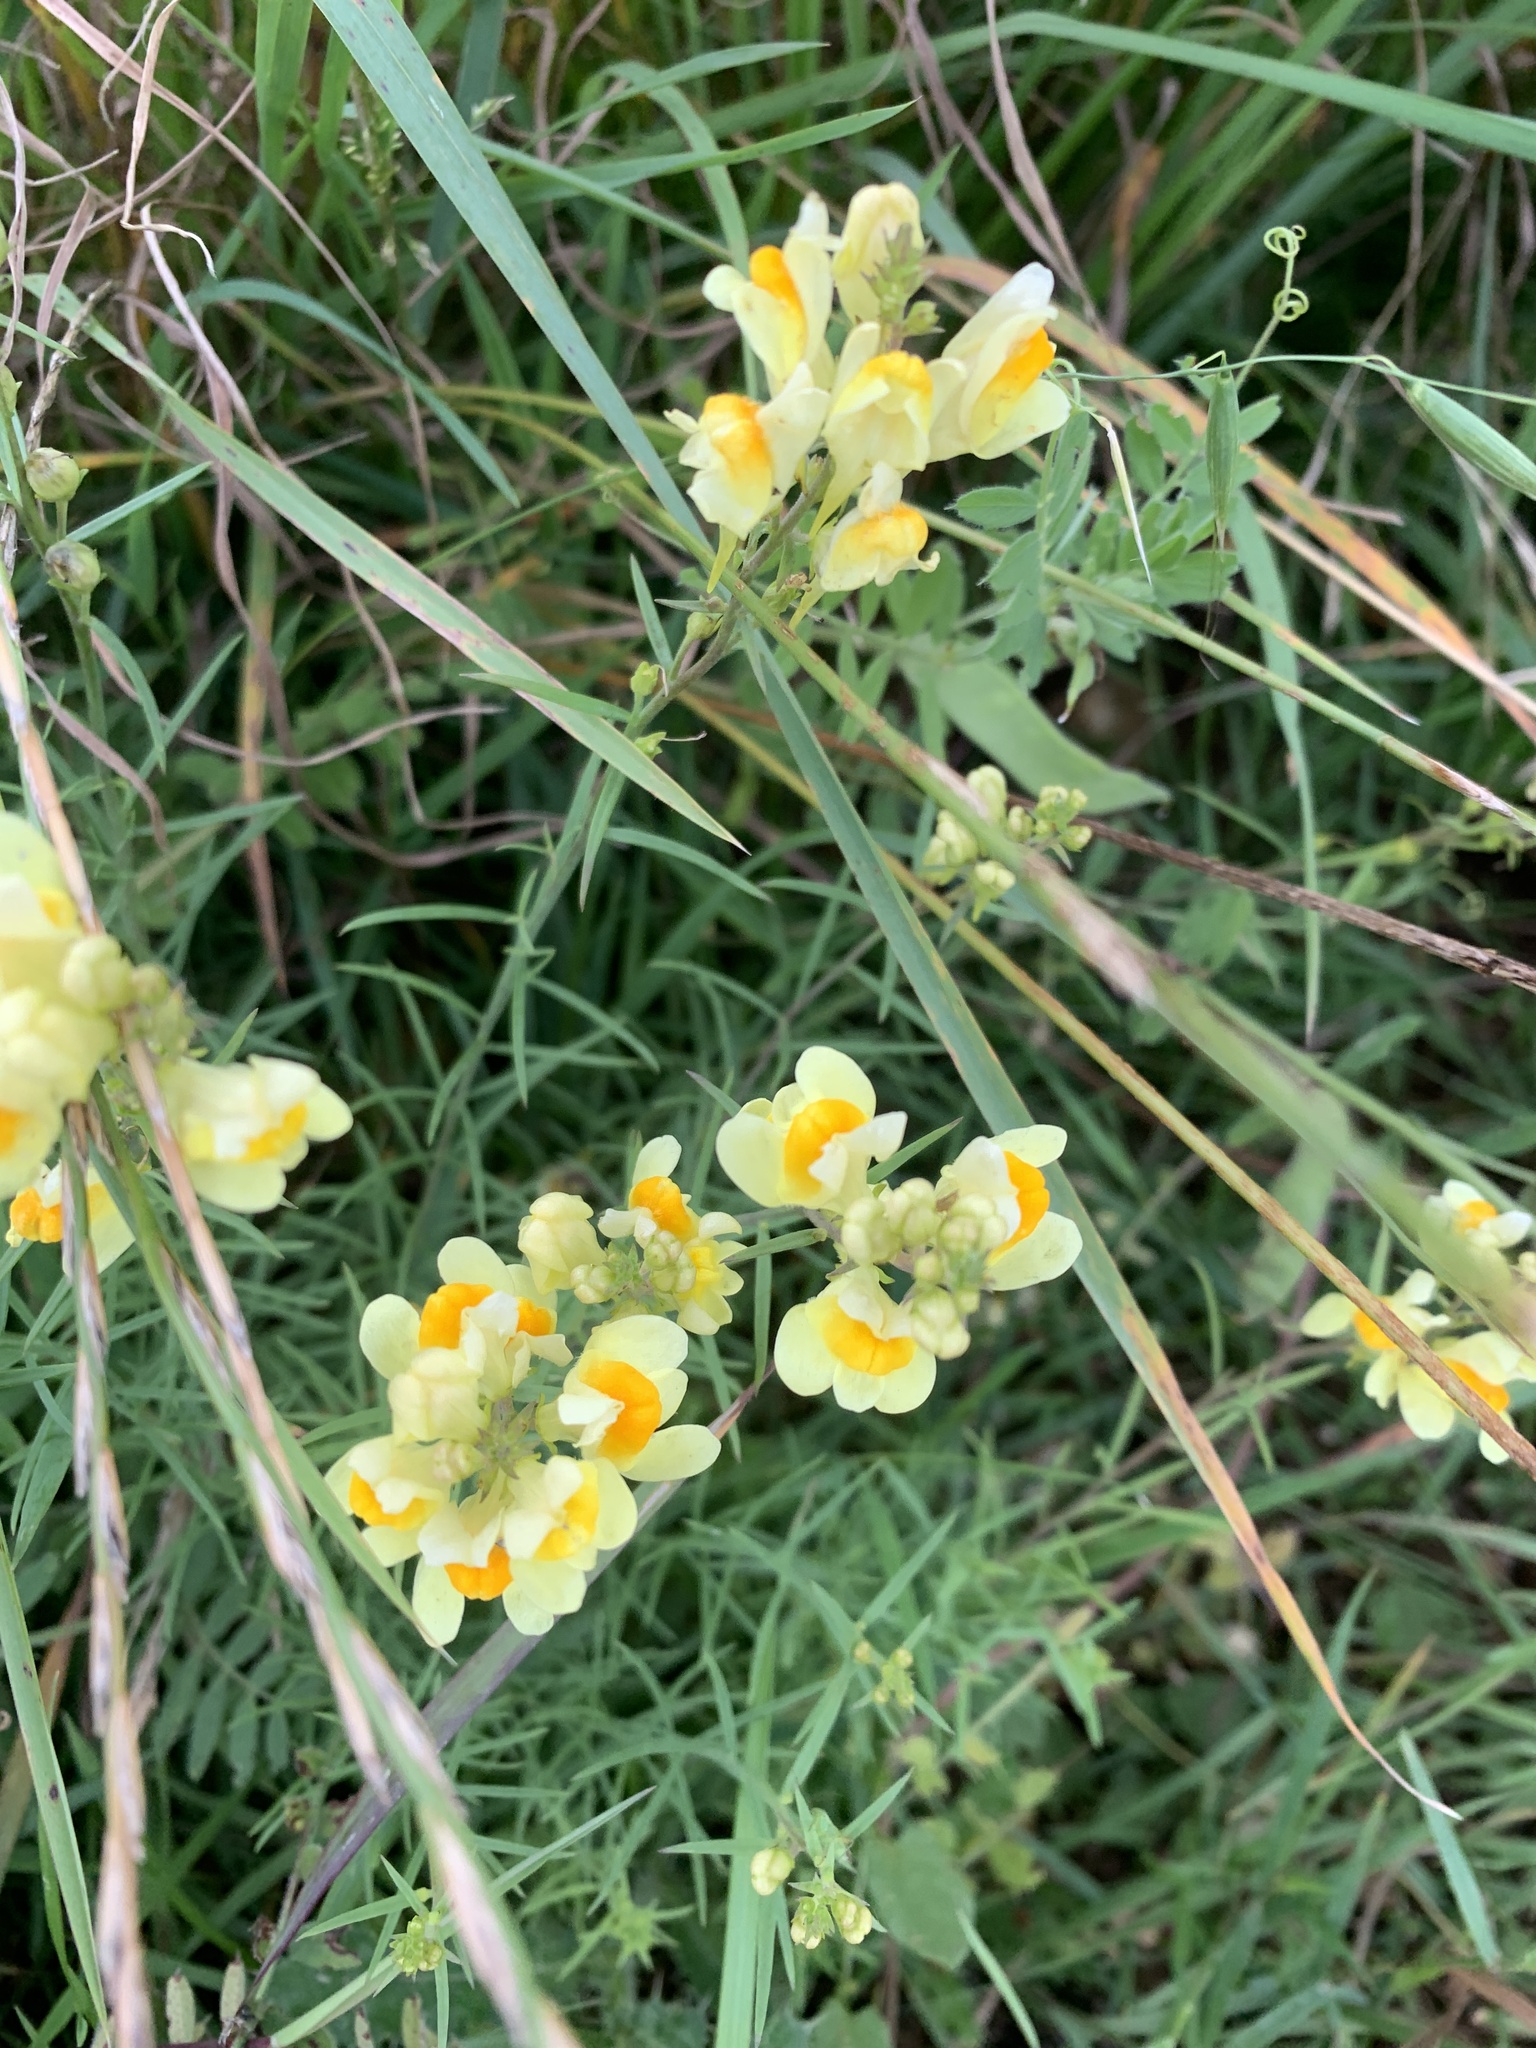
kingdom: Plantae
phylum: Tracheophyta
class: Magnoliopsida
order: Lamiales
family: Plantaginaceae
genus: Linaria
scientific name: Linaria vulgaris
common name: Butter and eggs
